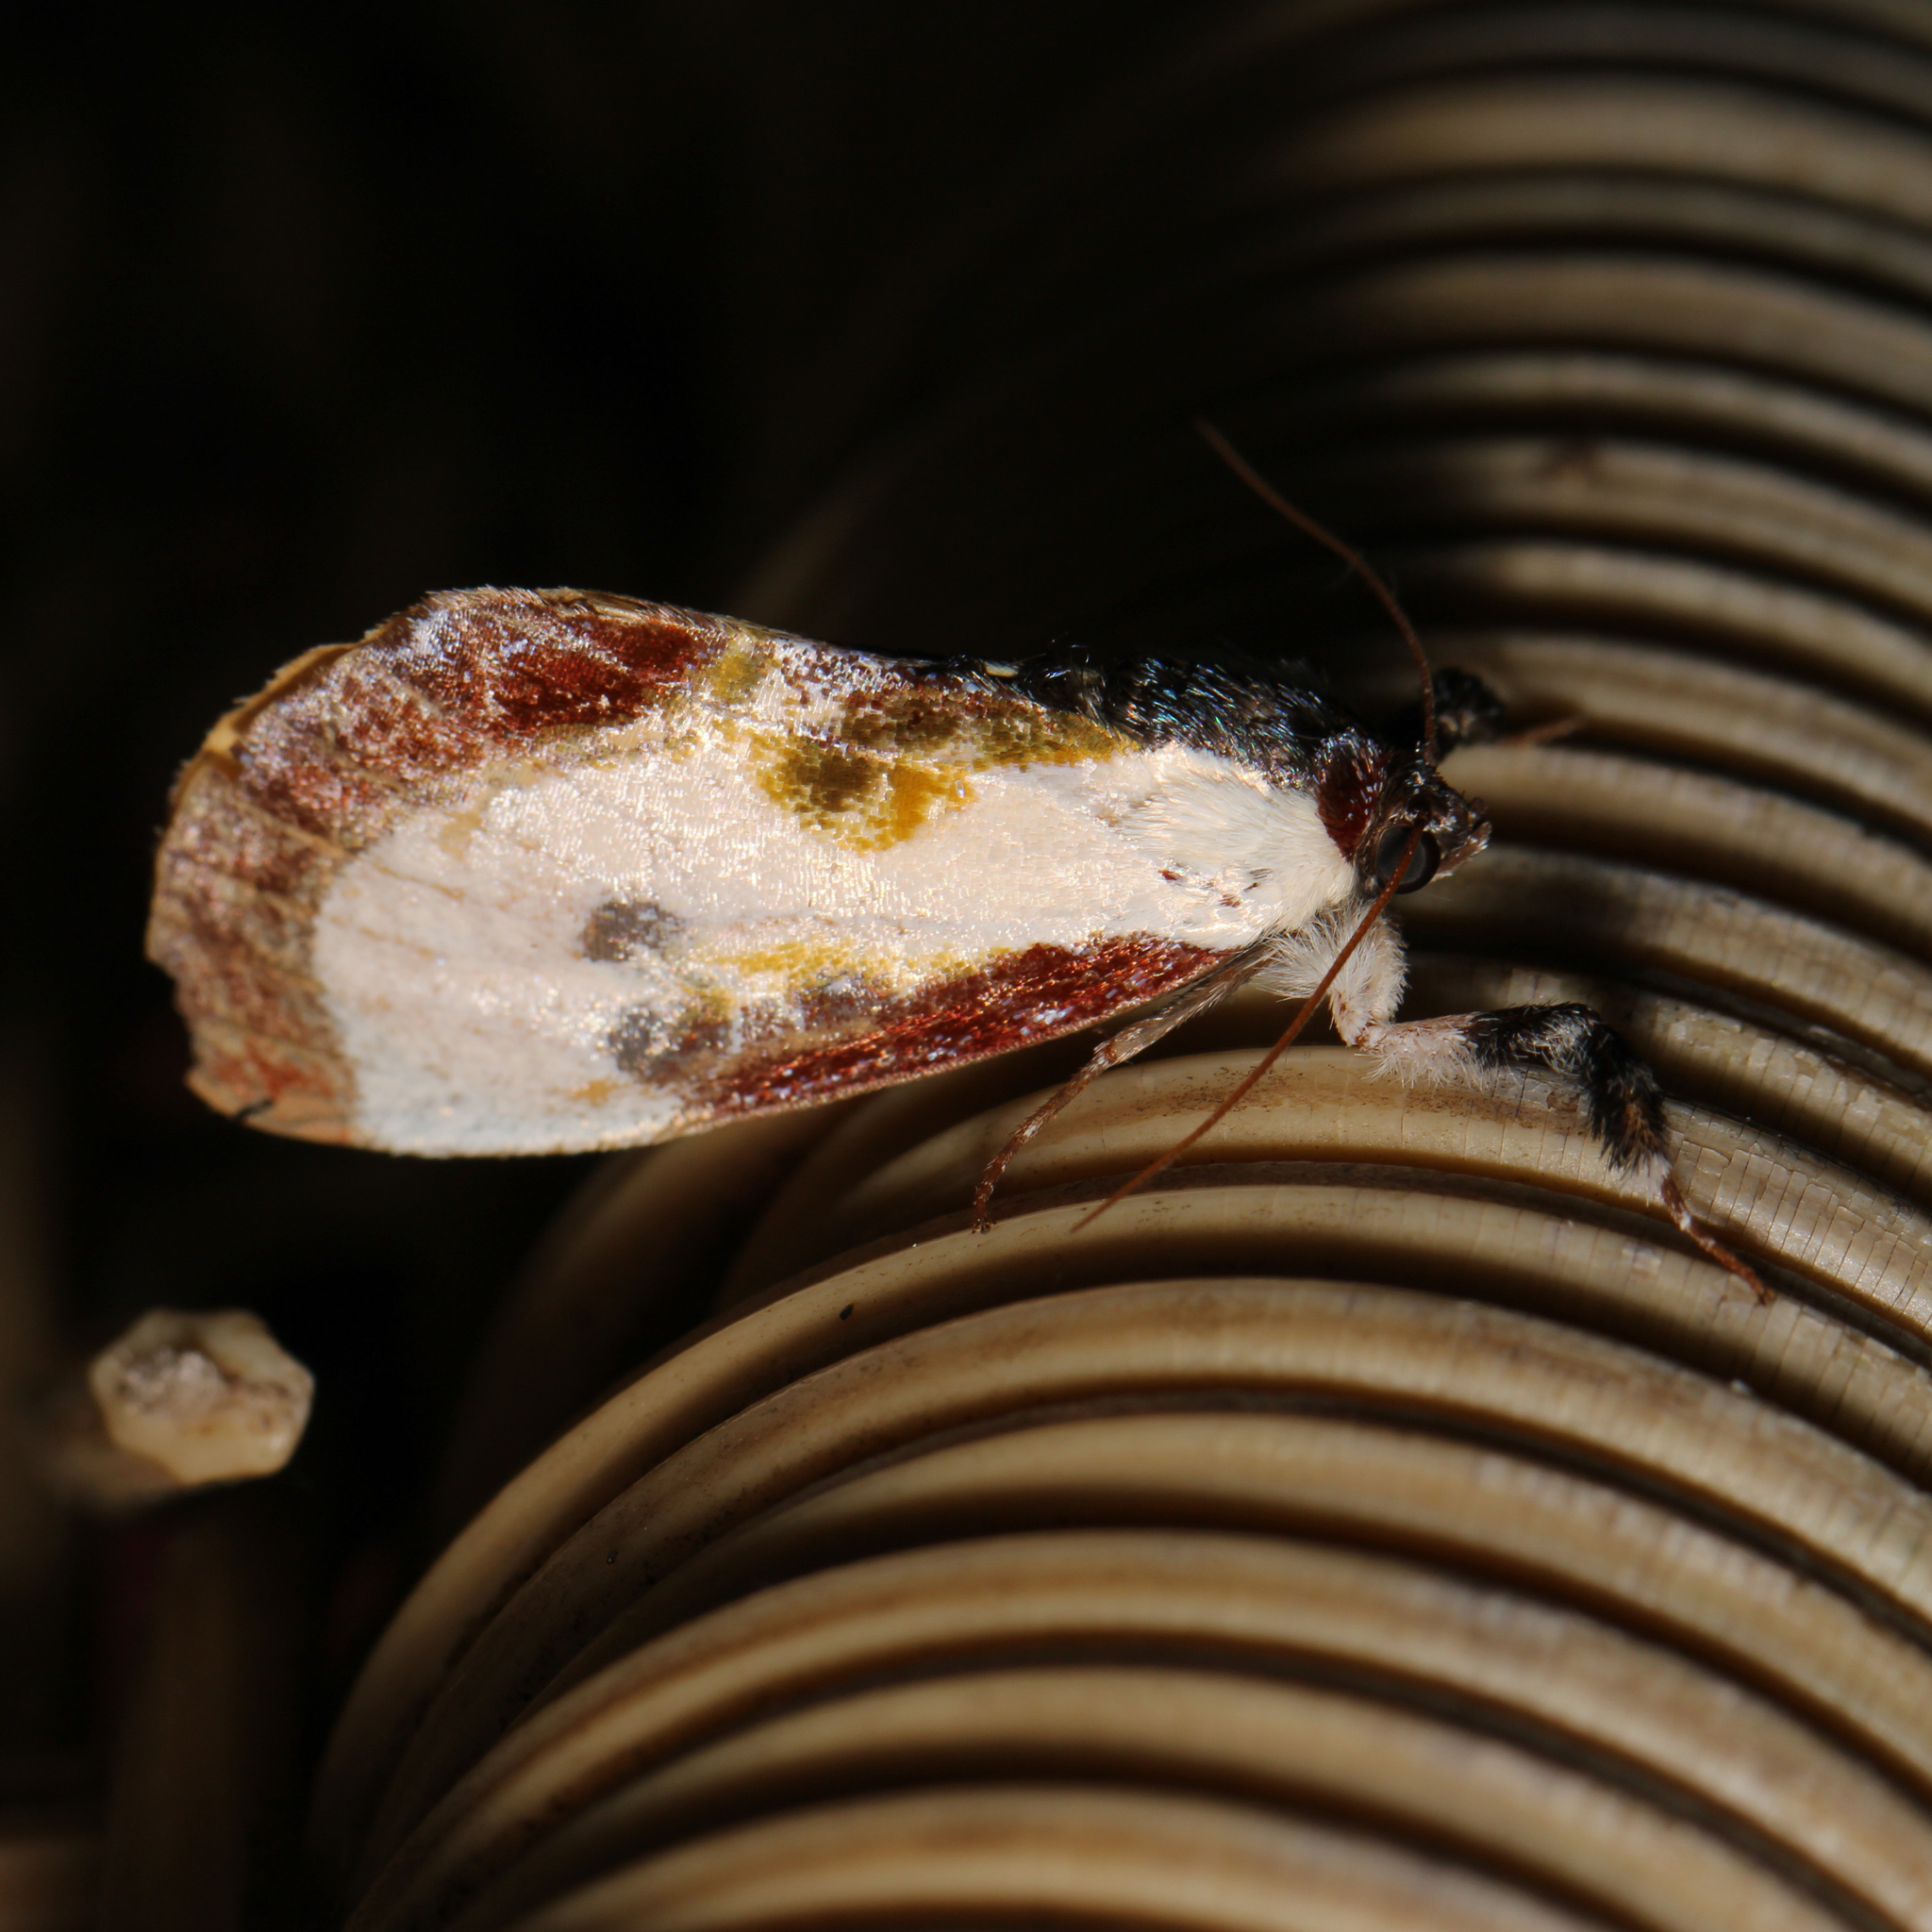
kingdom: Animalia
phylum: Arthropoda
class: Insecta
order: Lepidoptera
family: Noctuidae
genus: Eudryas
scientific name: Eudryas grata
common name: Beautiful wood-nymph
